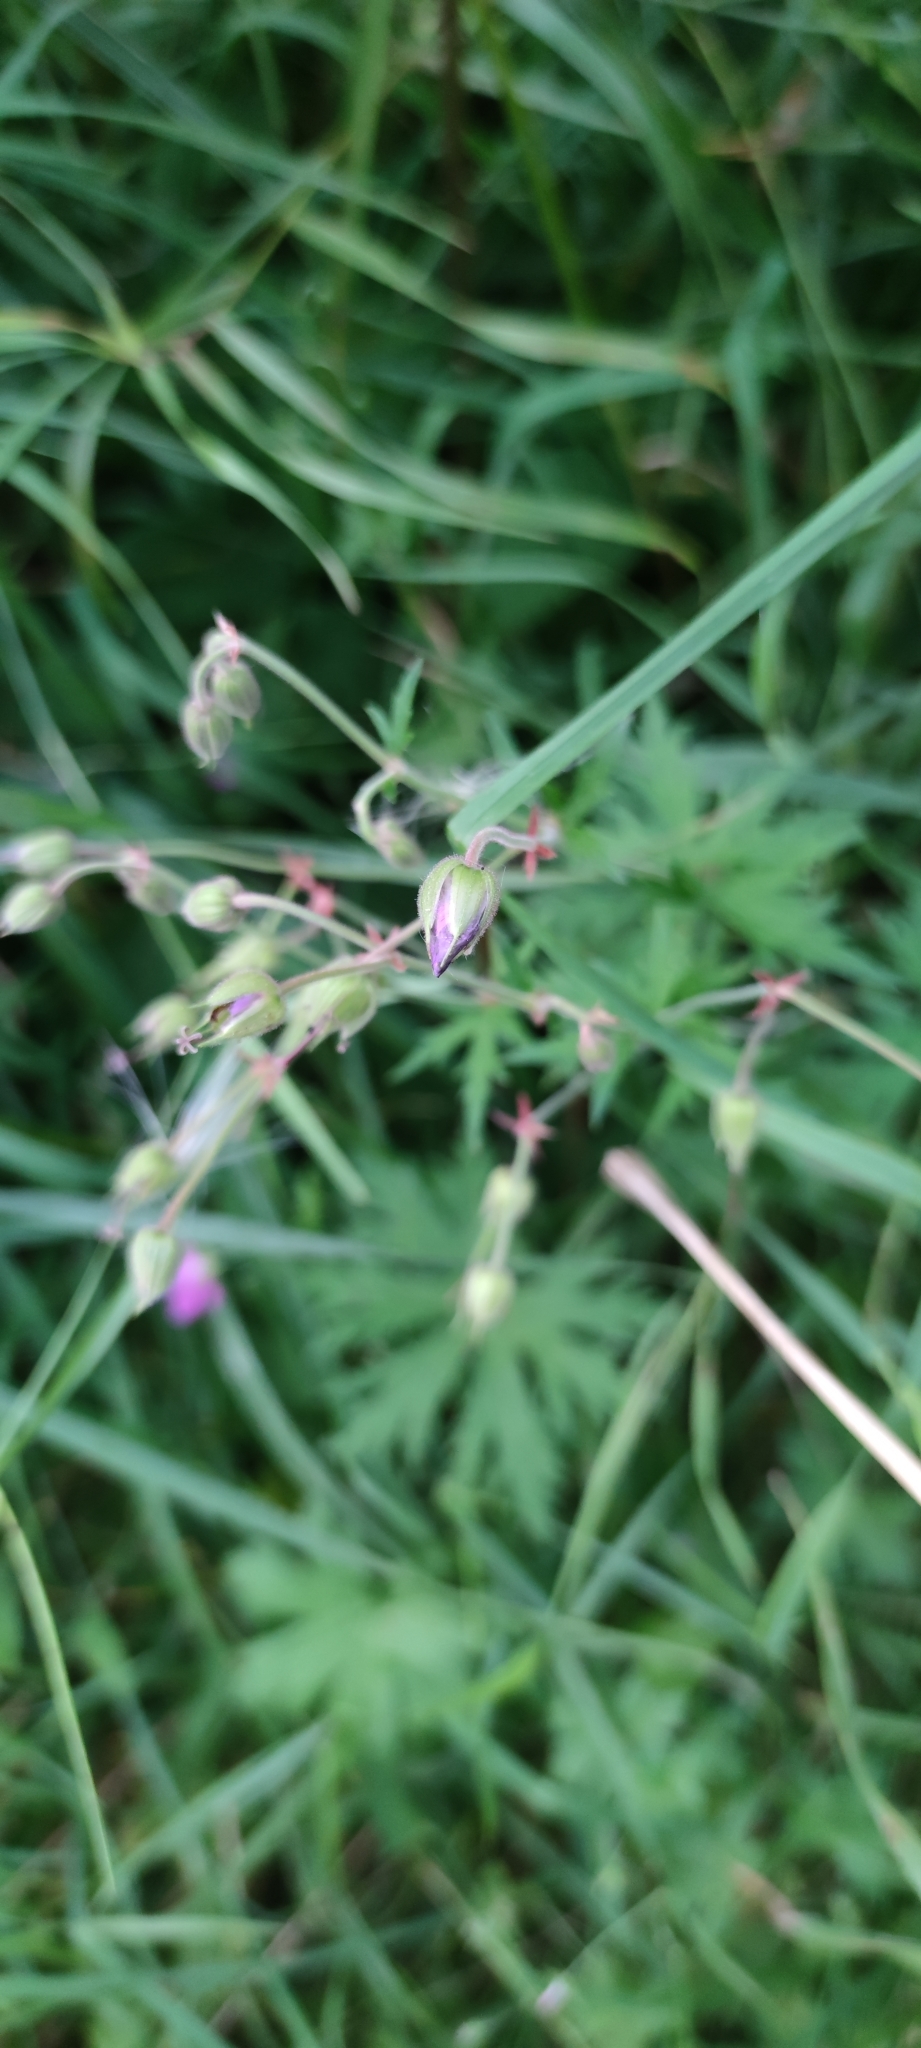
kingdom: Plantae
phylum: Tracheophyta
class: Magnoliopsida
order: Geraniales
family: Geraniaceae
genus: Geranium
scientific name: Geranium pratense
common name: Meadow crane's-bill
